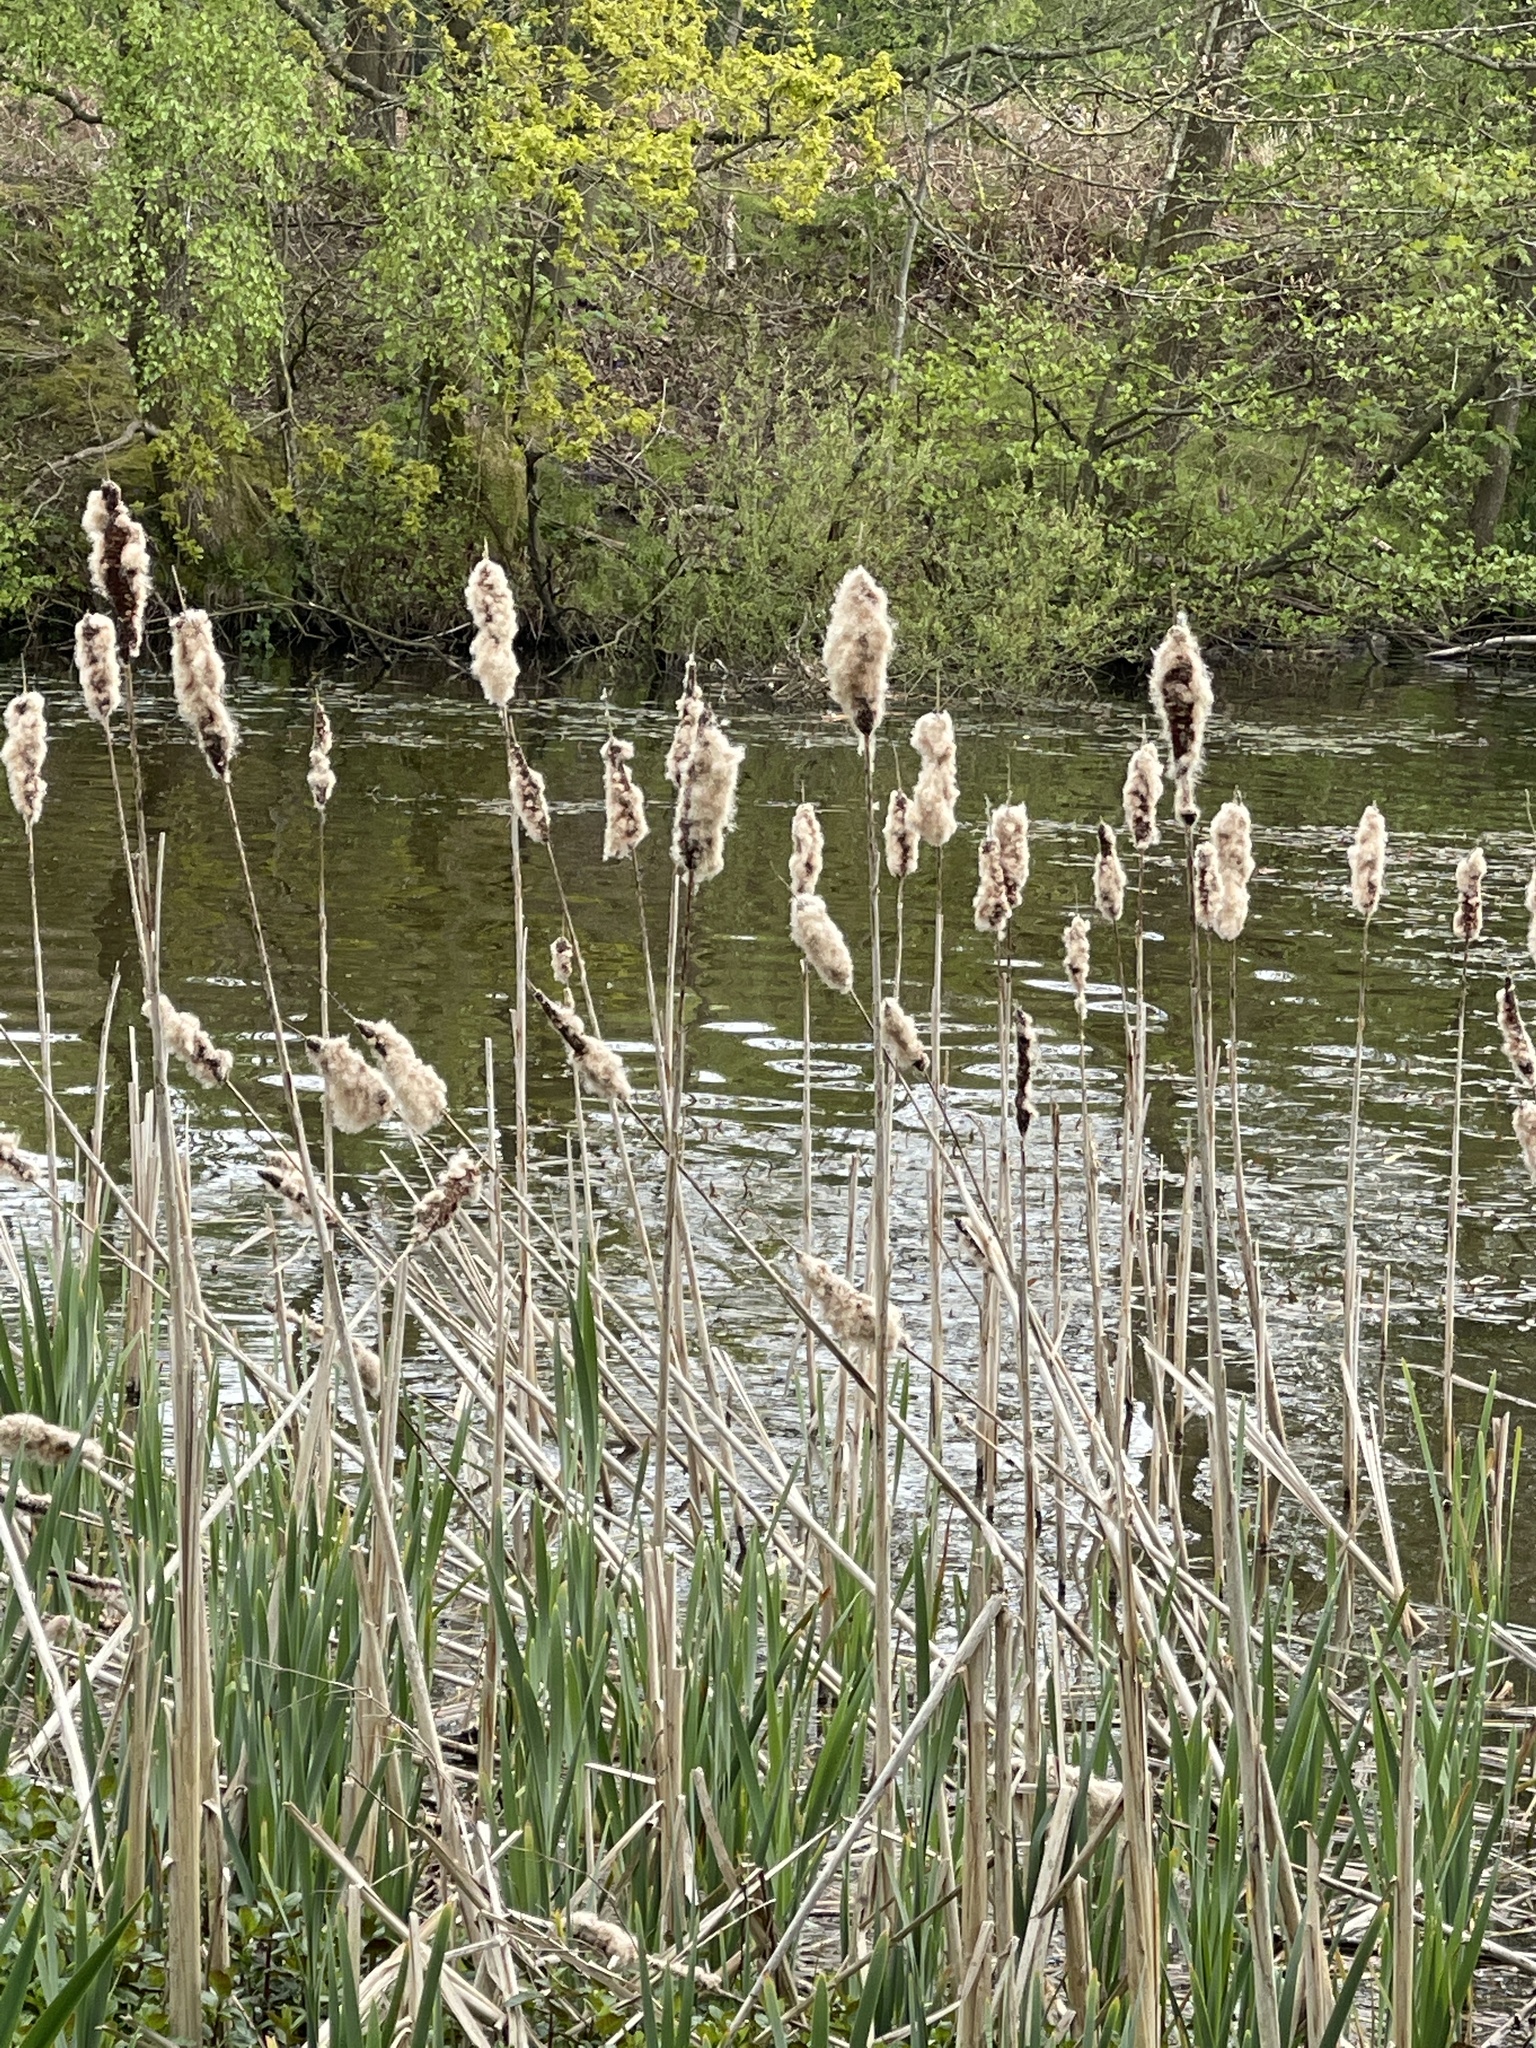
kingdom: Plantae
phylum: Tracheophyta
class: Liliopsida
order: Poales
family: Typhaceae
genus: Typha
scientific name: Typha latifolia
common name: Broadleaf cattail
